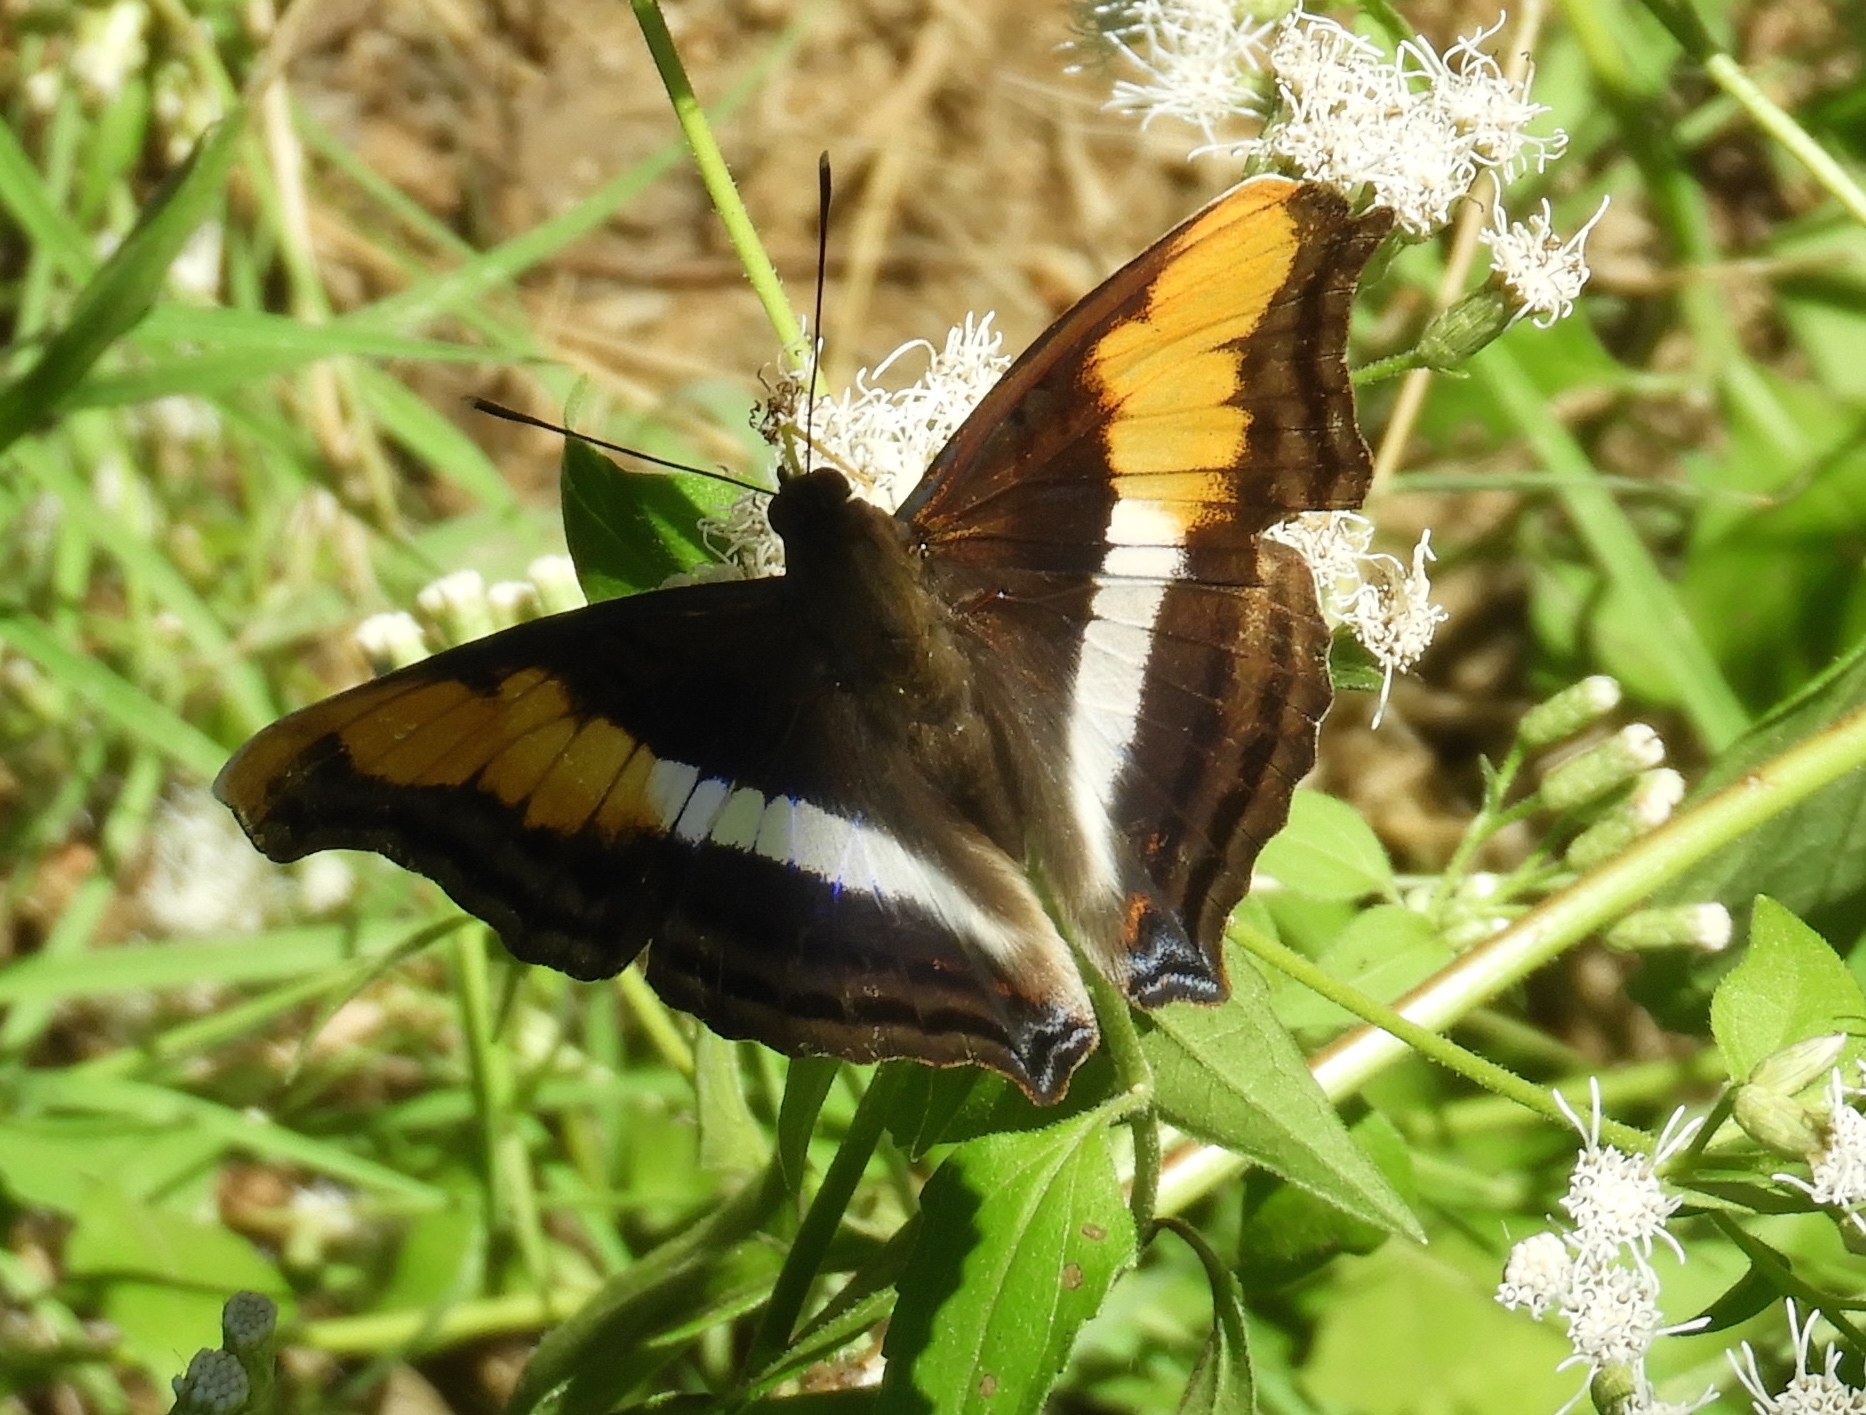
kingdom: Animalia
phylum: Arthropoda
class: Insecta
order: Lepidoptera
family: Nymphalidae
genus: Doxocopa
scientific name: Doxocopa laure
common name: Silver emperor
